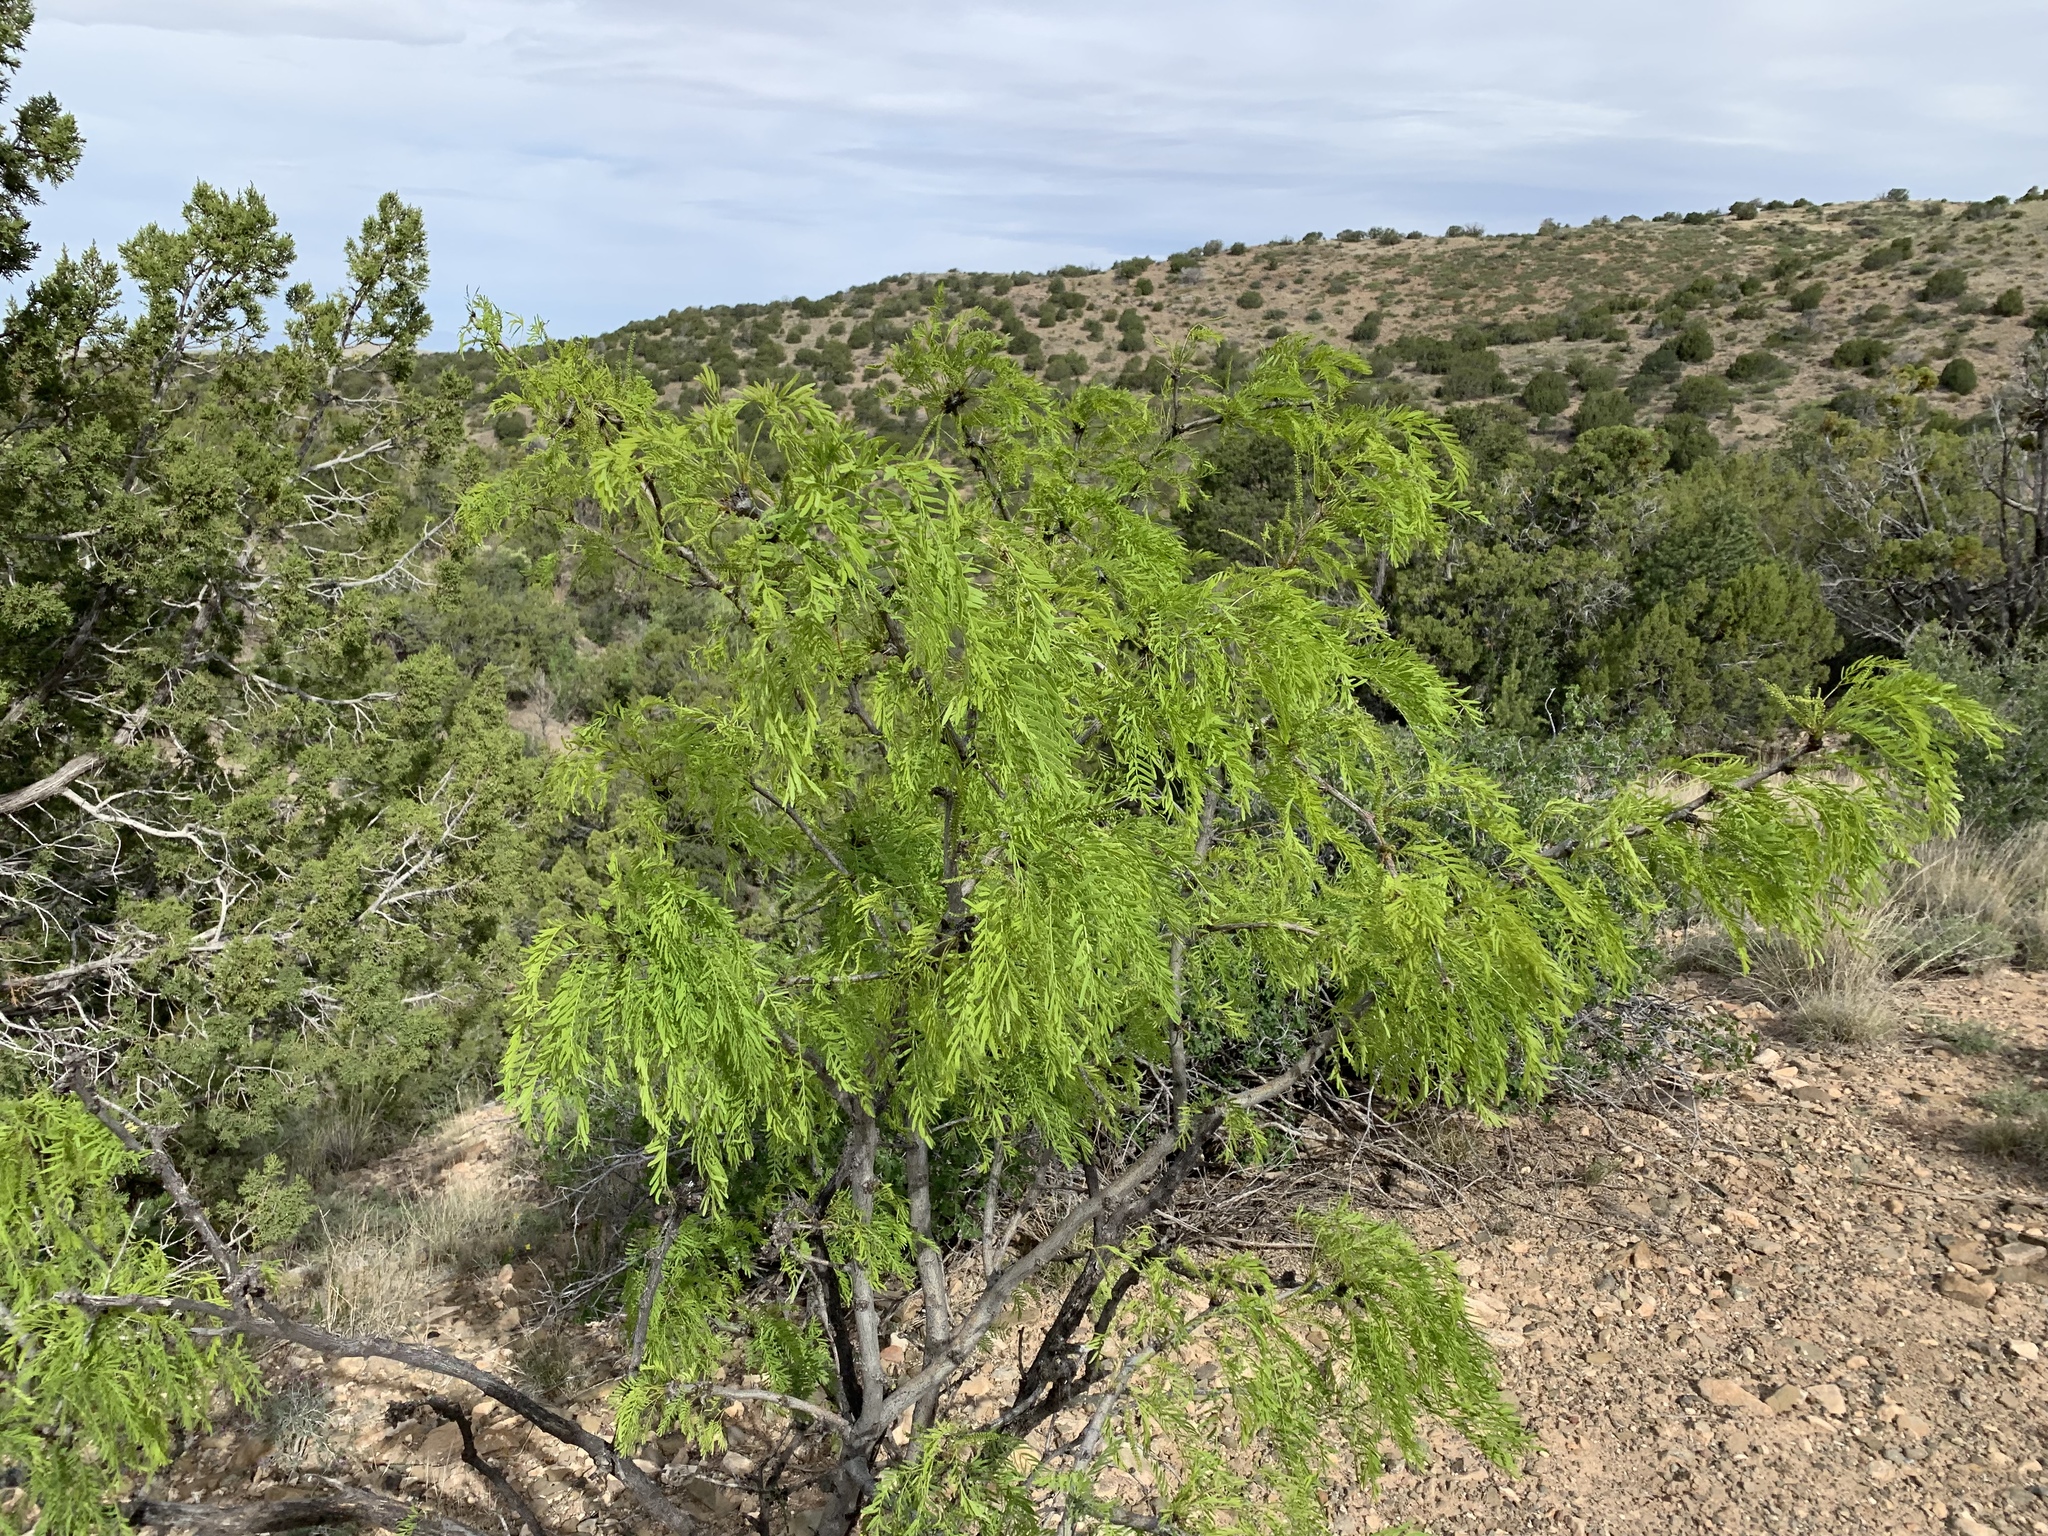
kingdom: Plantae
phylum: Tracheophyta
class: Magnoliopsida
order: Fabales
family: Fabaceae
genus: Prosopis
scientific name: Prosopis glandulosa
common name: Honey mesquite
